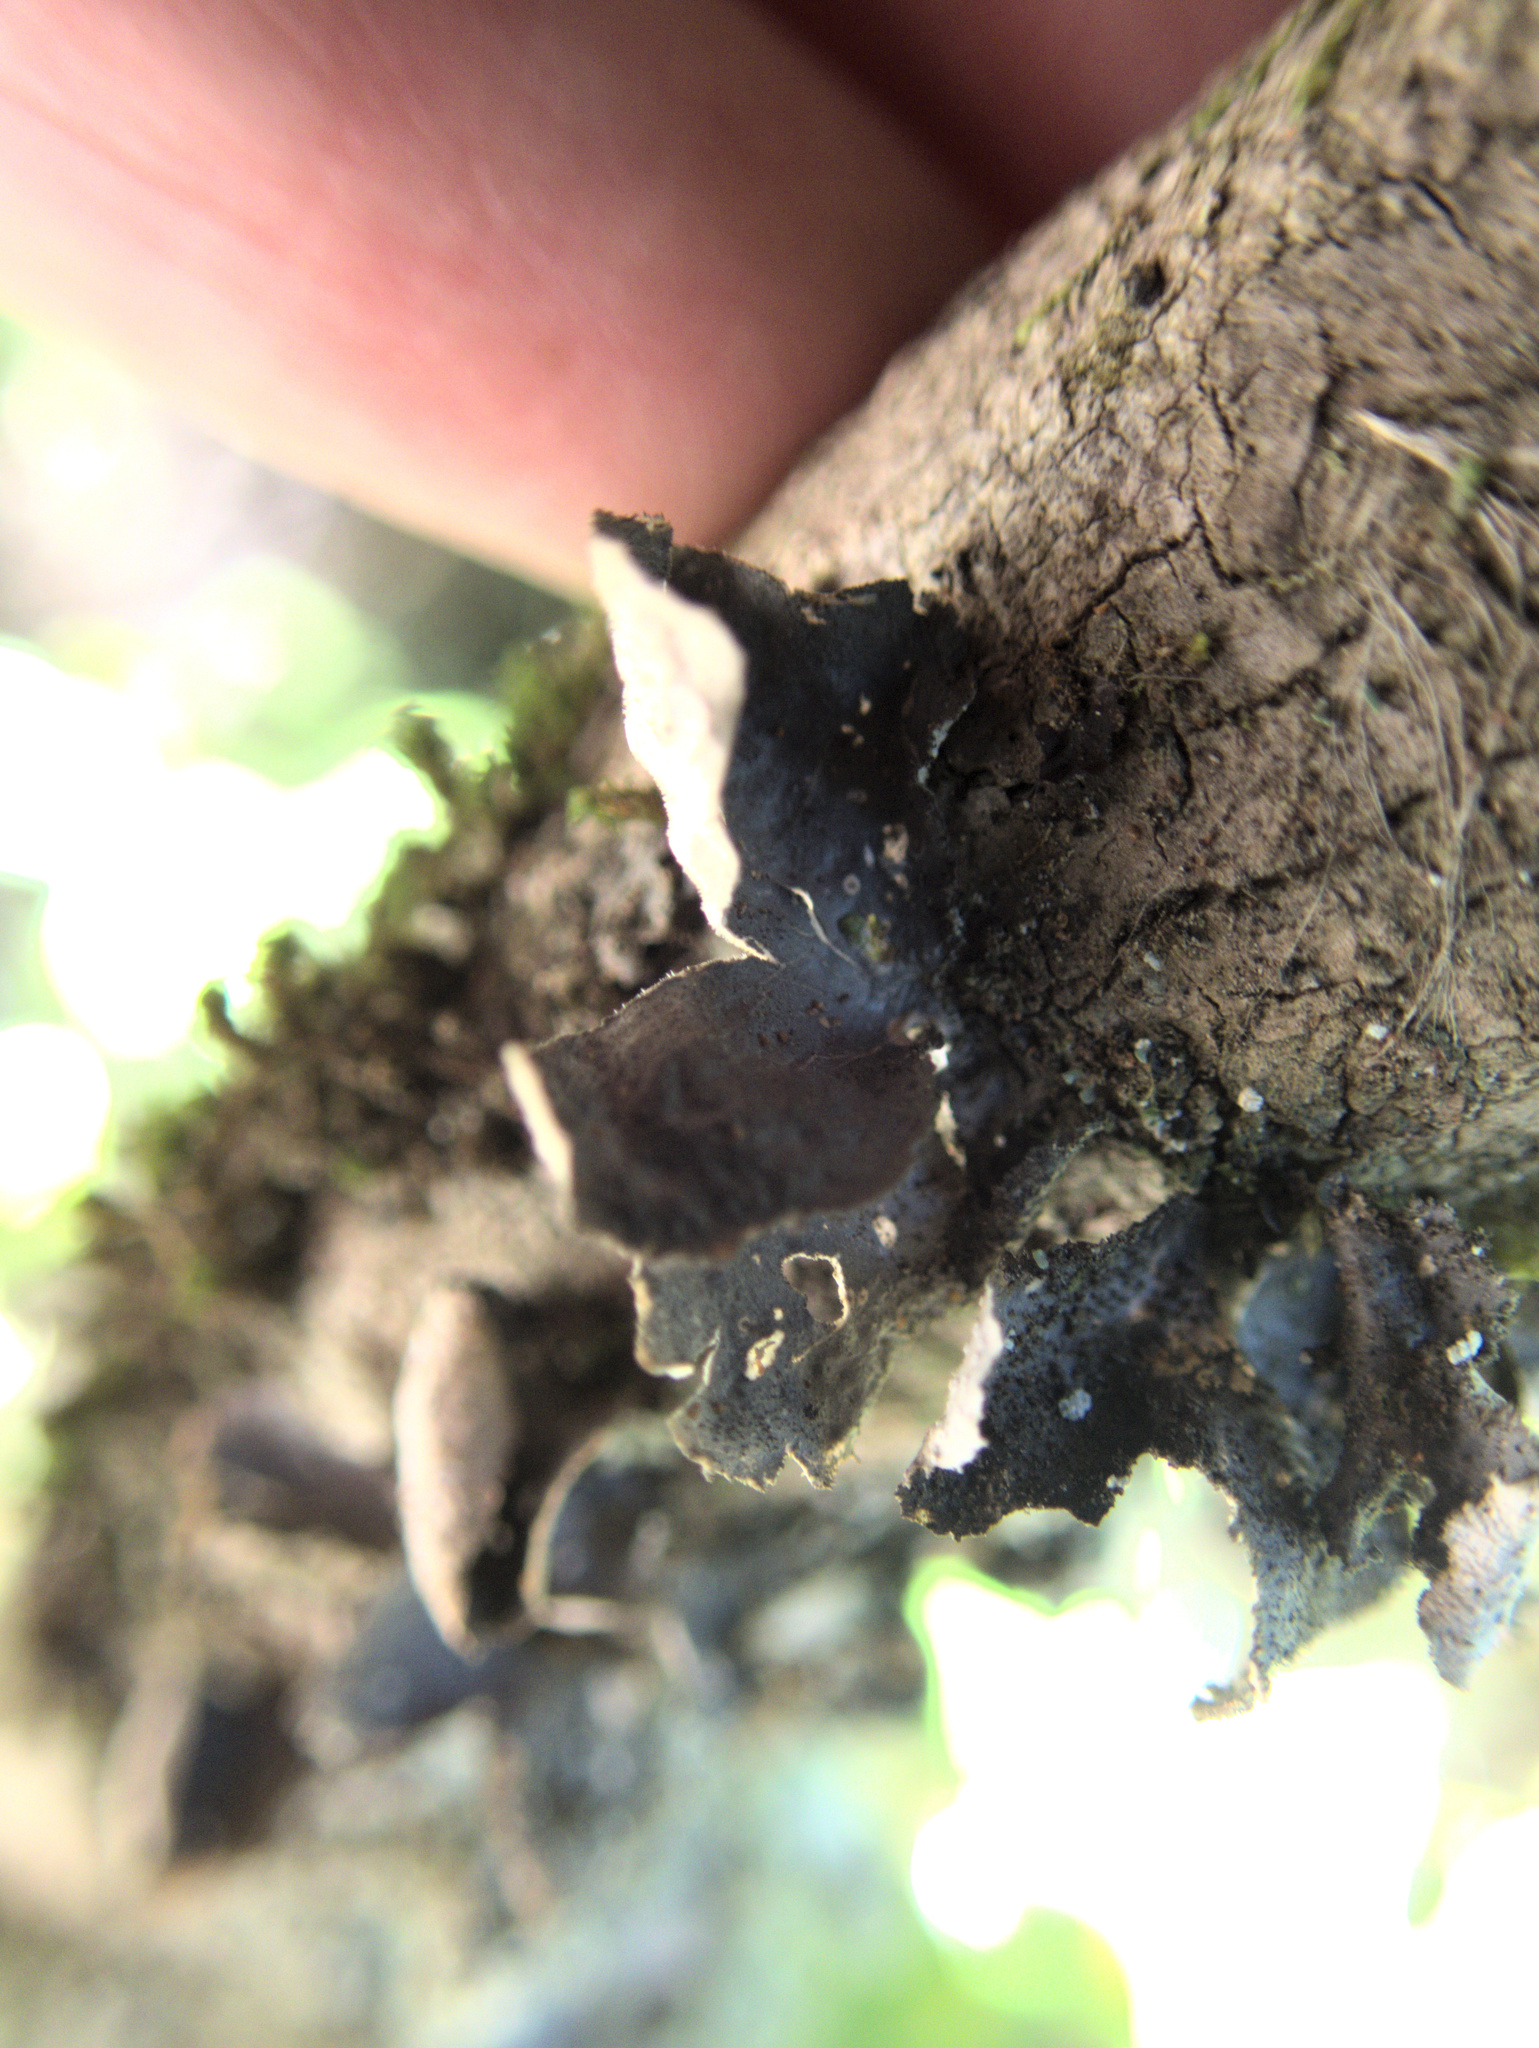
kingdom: Fungi
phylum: Ascomycota
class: Lecanoromycetes
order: Peltigerales
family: Lobariaceae
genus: Sticta
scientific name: Sticta fuliginosa
